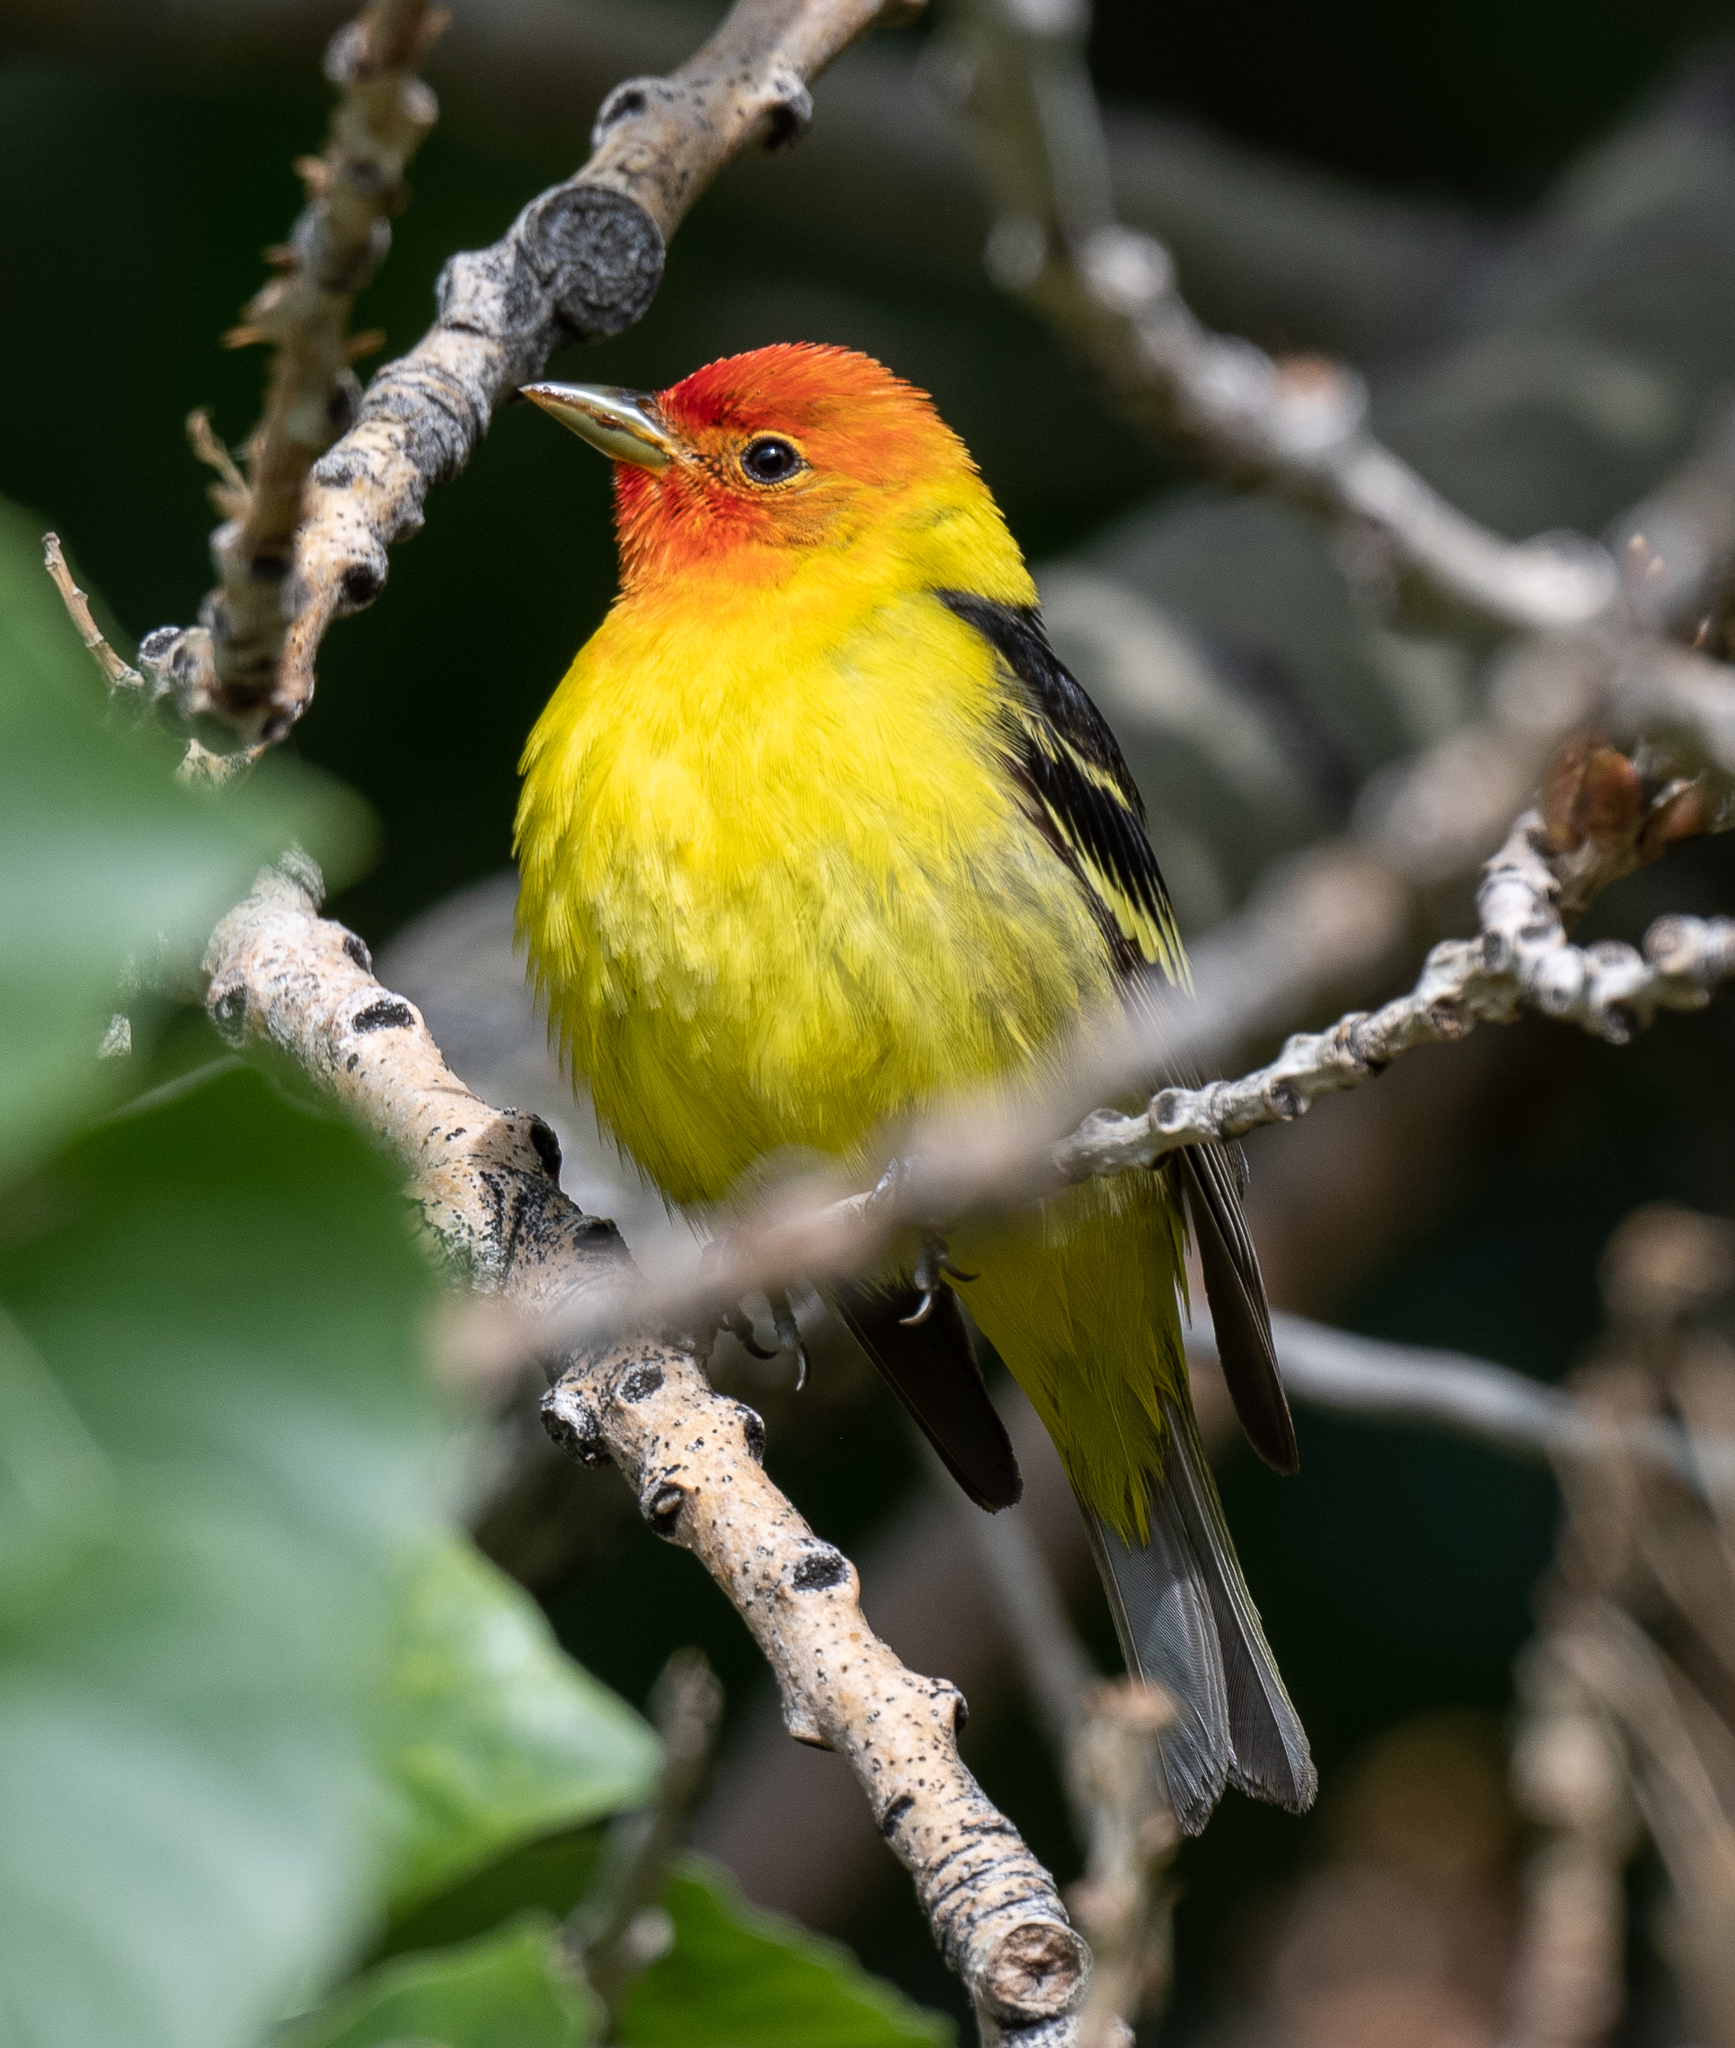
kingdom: Animalia
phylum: Chordata
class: Aves
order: Passeriformes
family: Cardinalidae
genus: Piranga
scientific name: Piranga ludoviciana
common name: Western tanager
